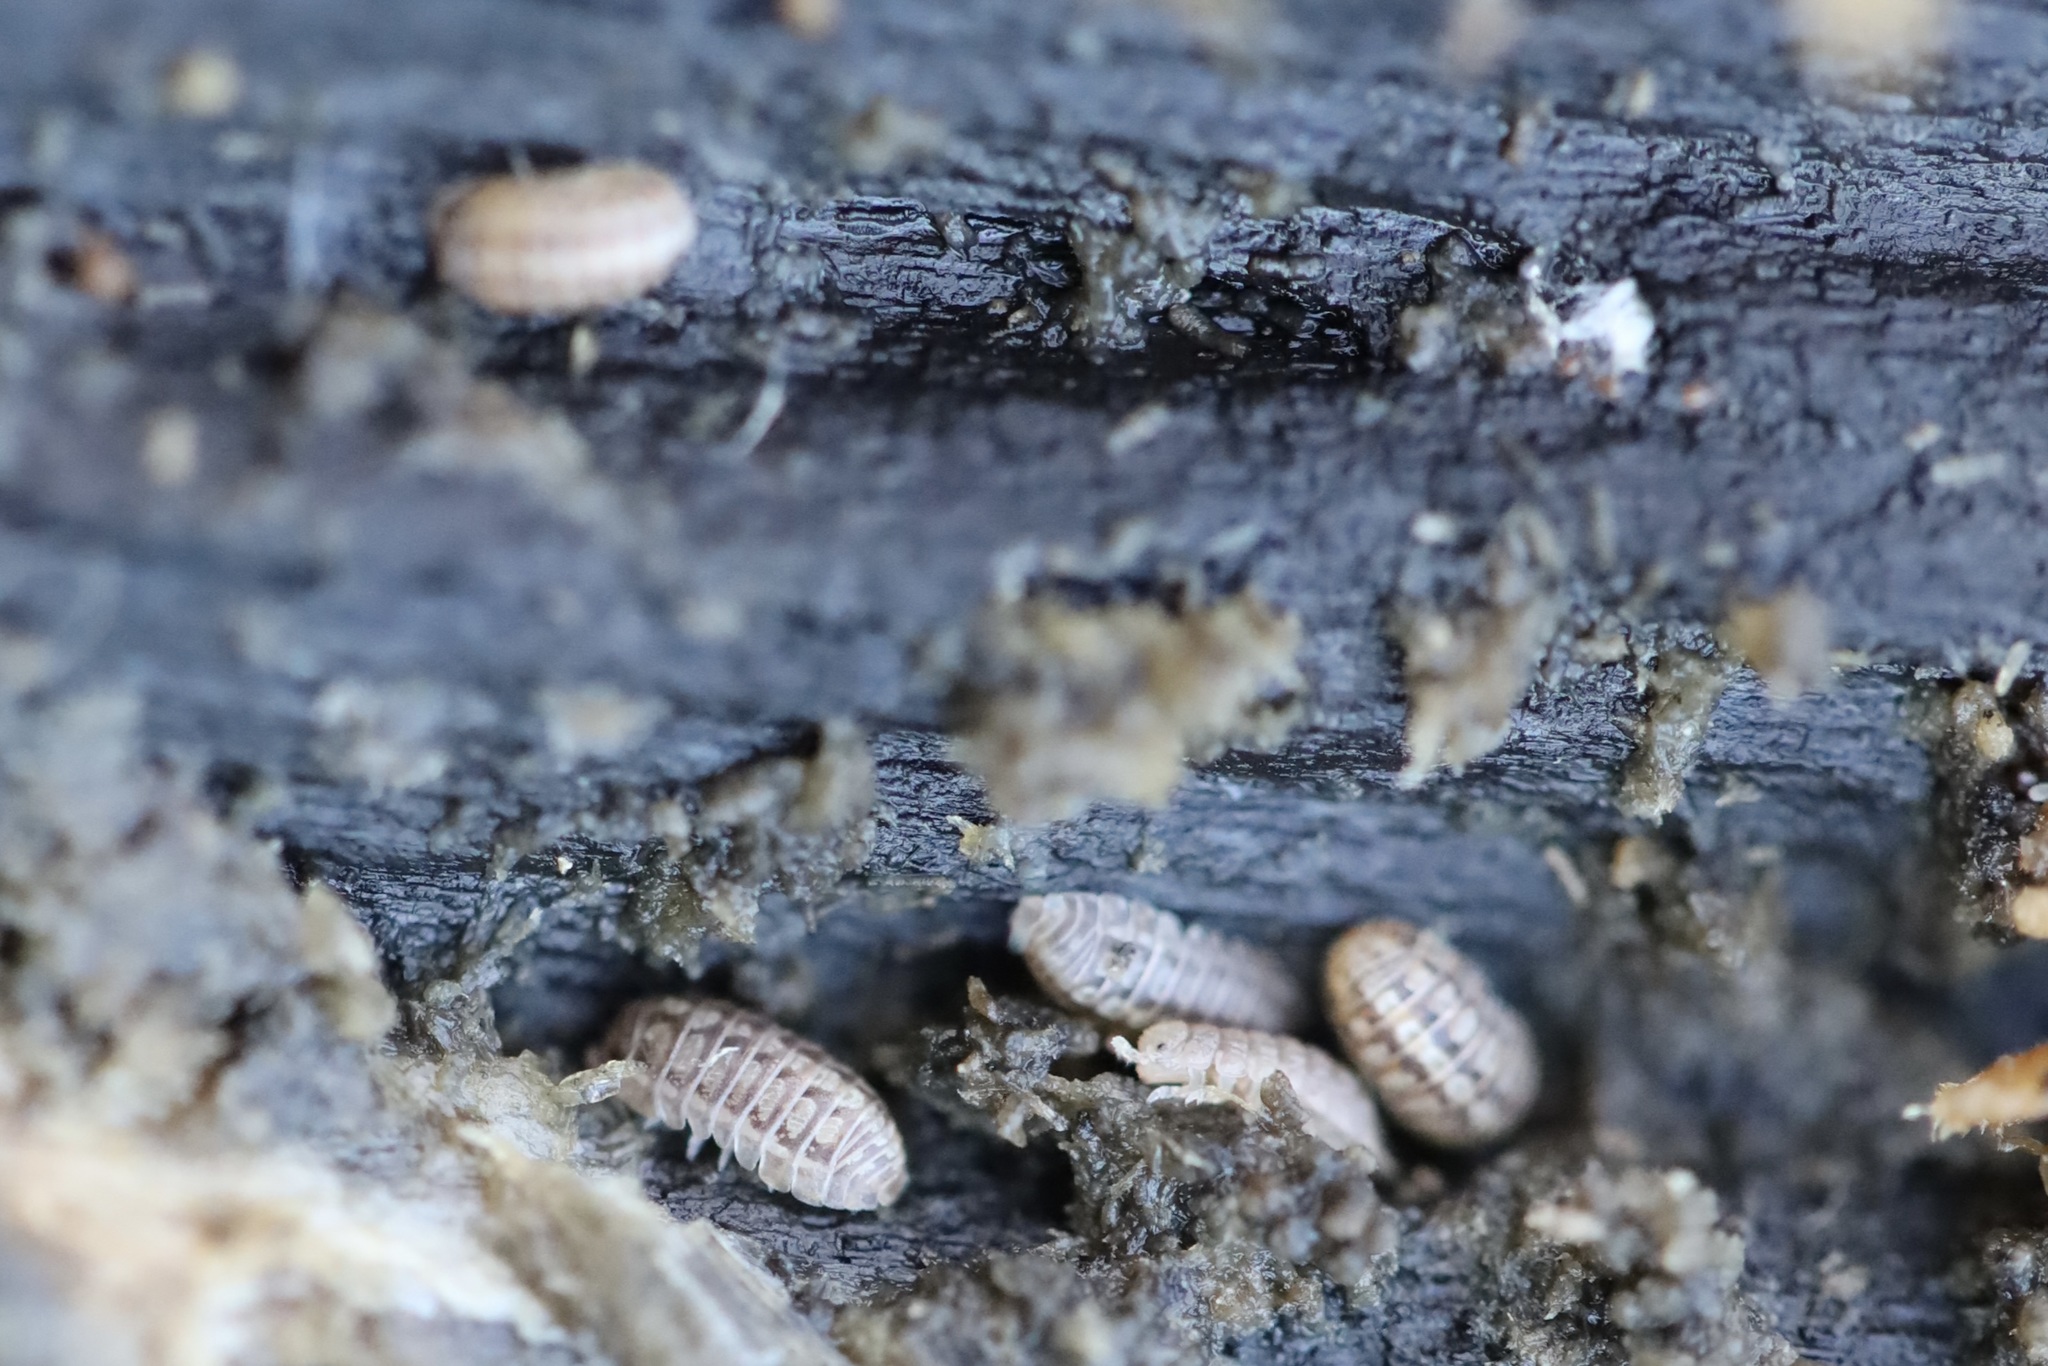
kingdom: Animalia
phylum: Arthropoda
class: Malacostraca
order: Isopoda
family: Armadillidiidae
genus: Armadillidium
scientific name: Armadillidium vulgare
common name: Common pill woodlouse
